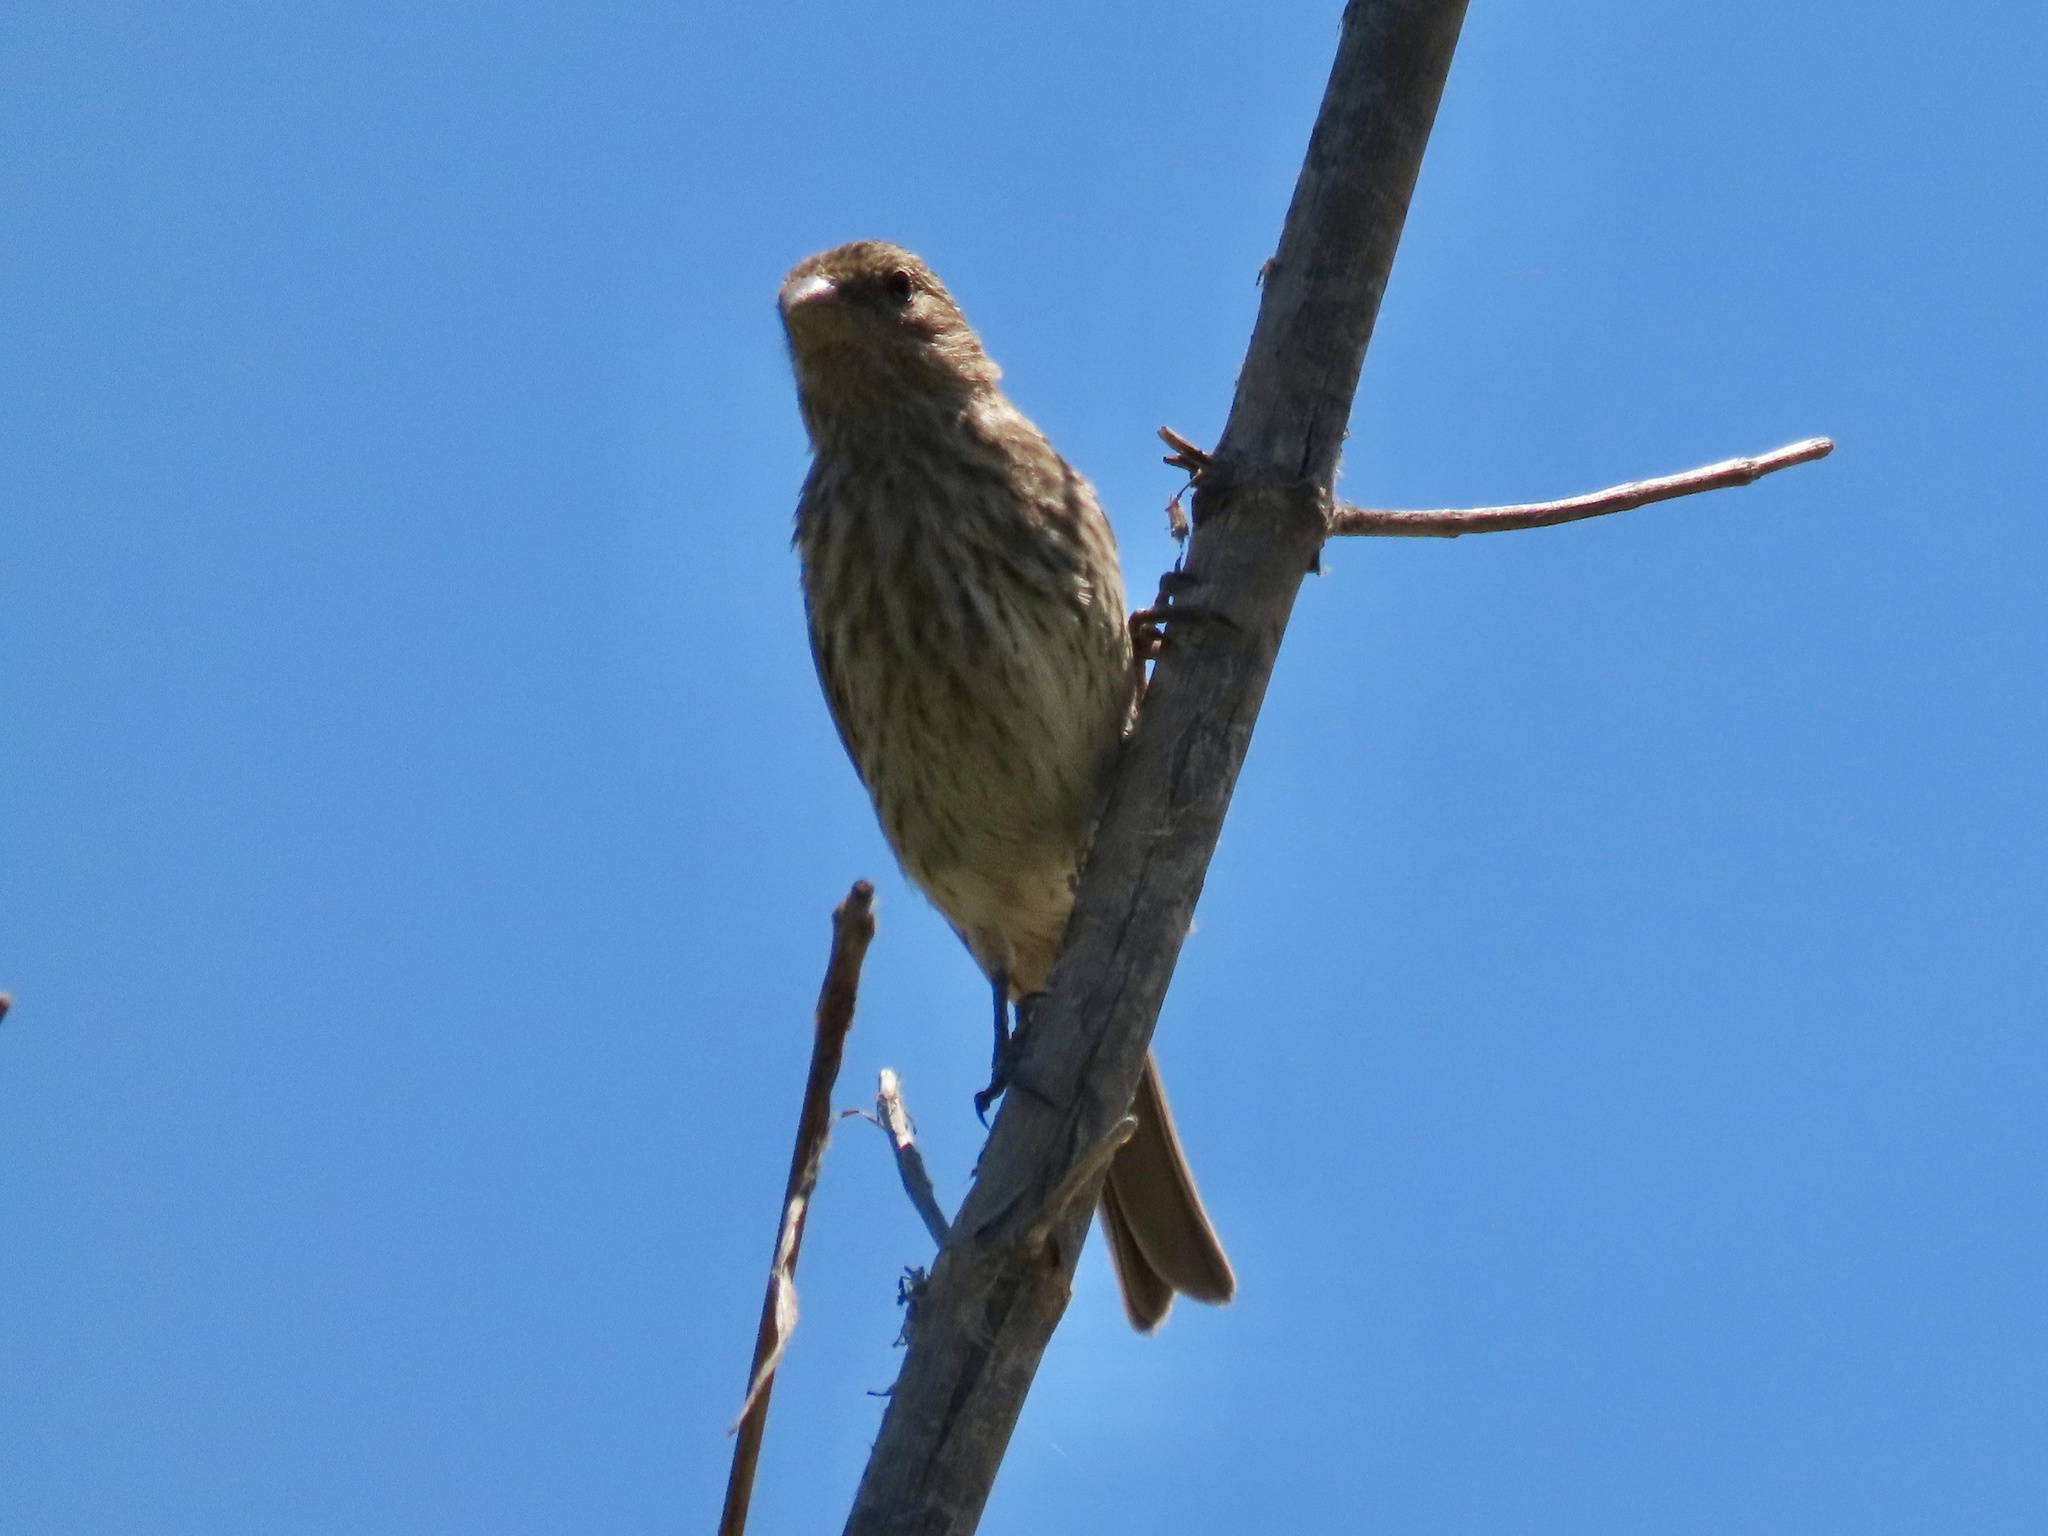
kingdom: Animalia
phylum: Chordata
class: Aves
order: Passeriformes
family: Fringillidae
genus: Haemorhous
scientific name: Haemorhous mexicanus
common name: House finch
